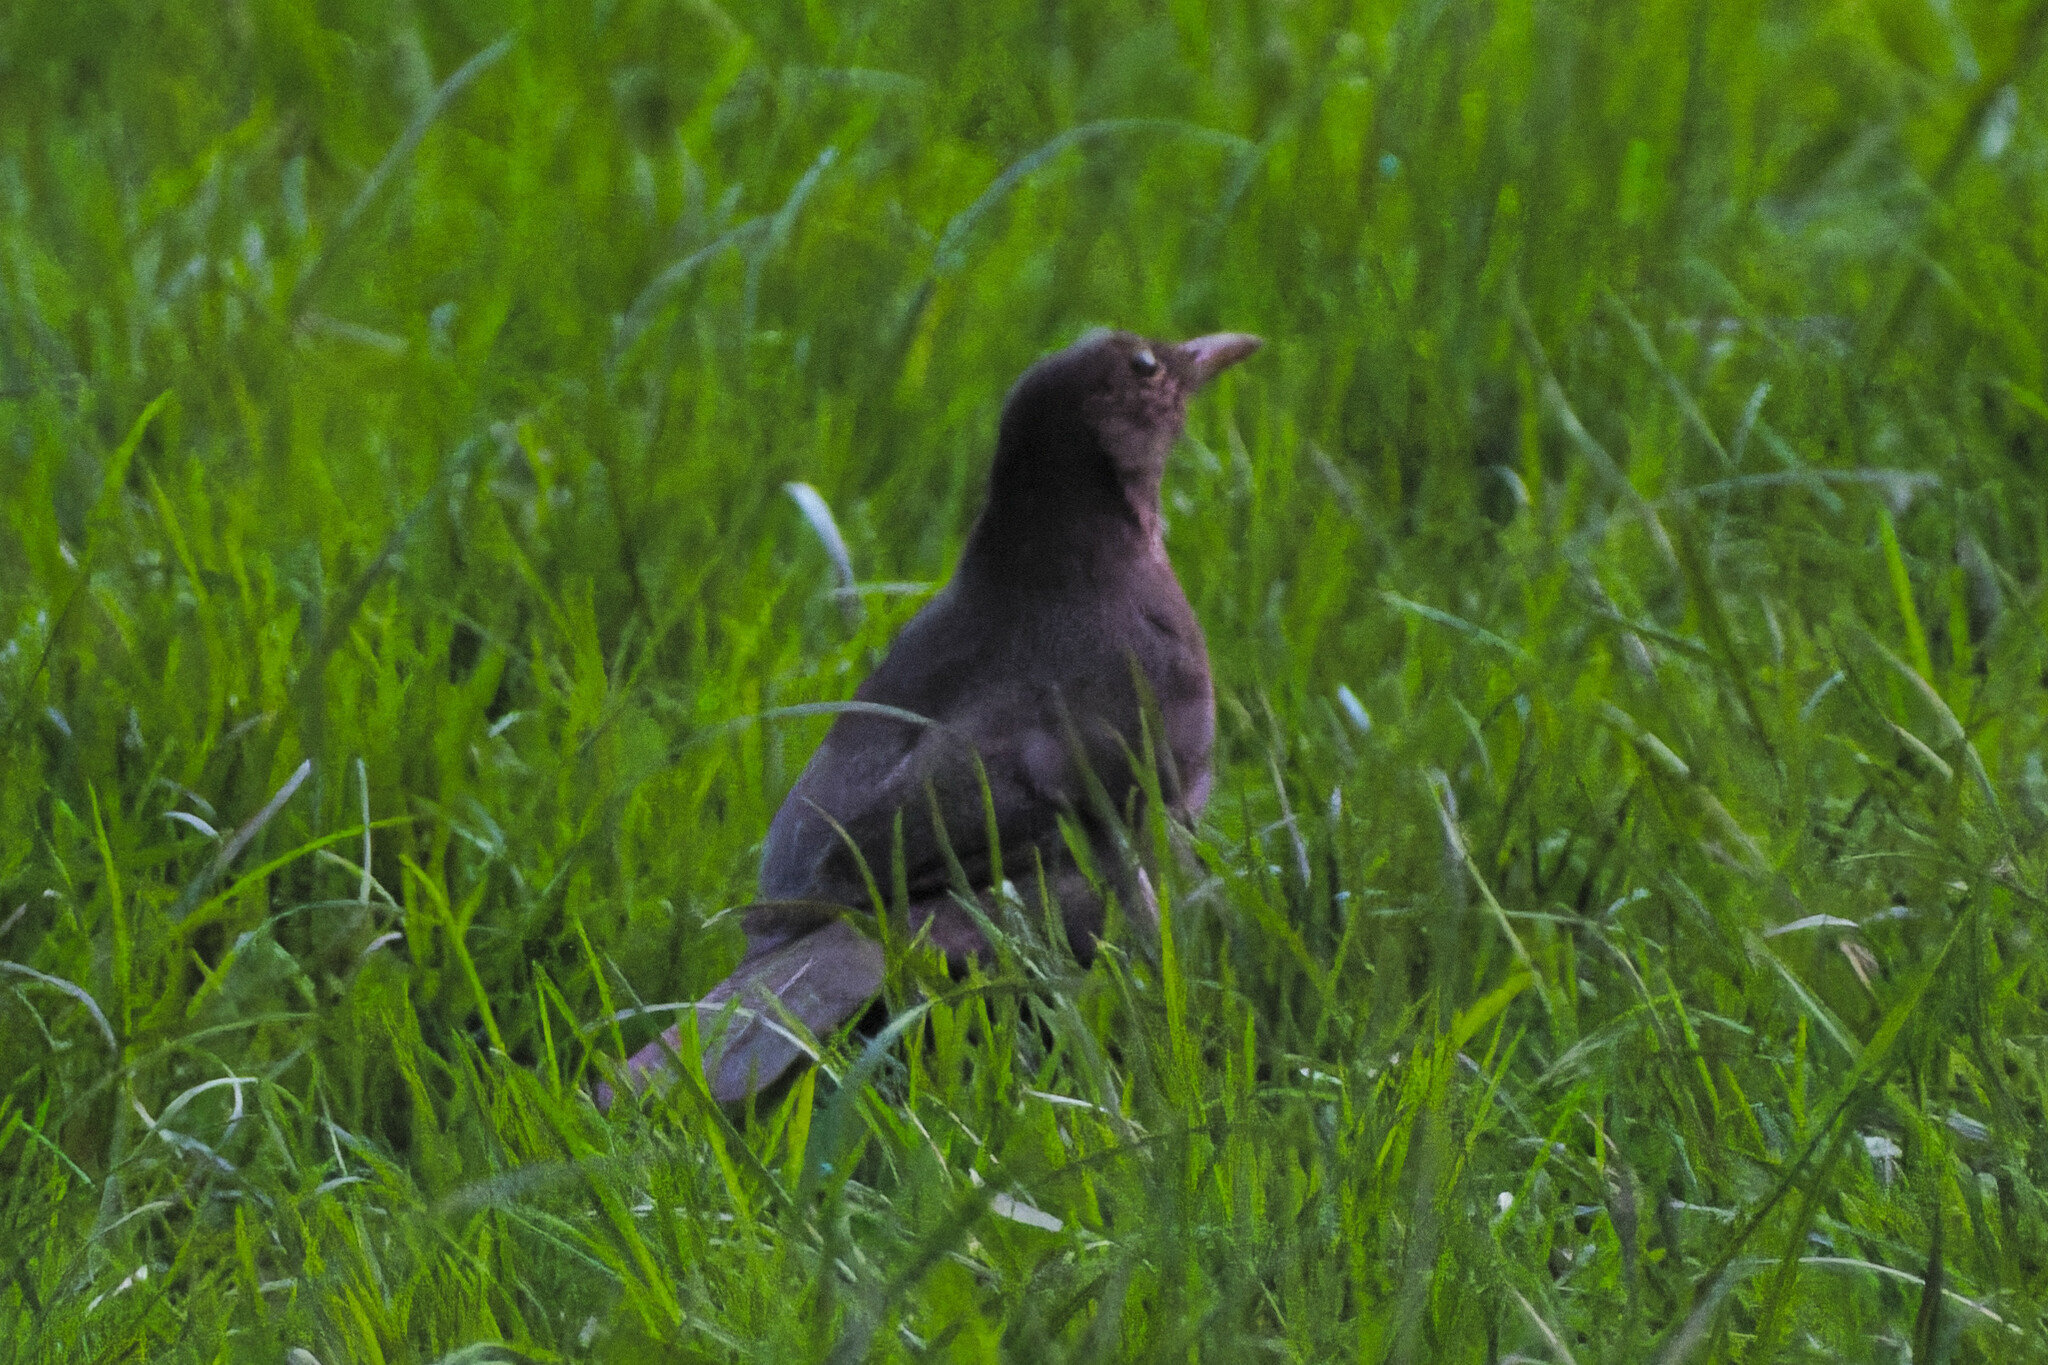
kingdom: Animalia
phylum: Chordata
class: Aves
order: Passeriformes
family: Turdidae
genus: Turdus
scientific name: Turdus merula
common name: Common blackbird
